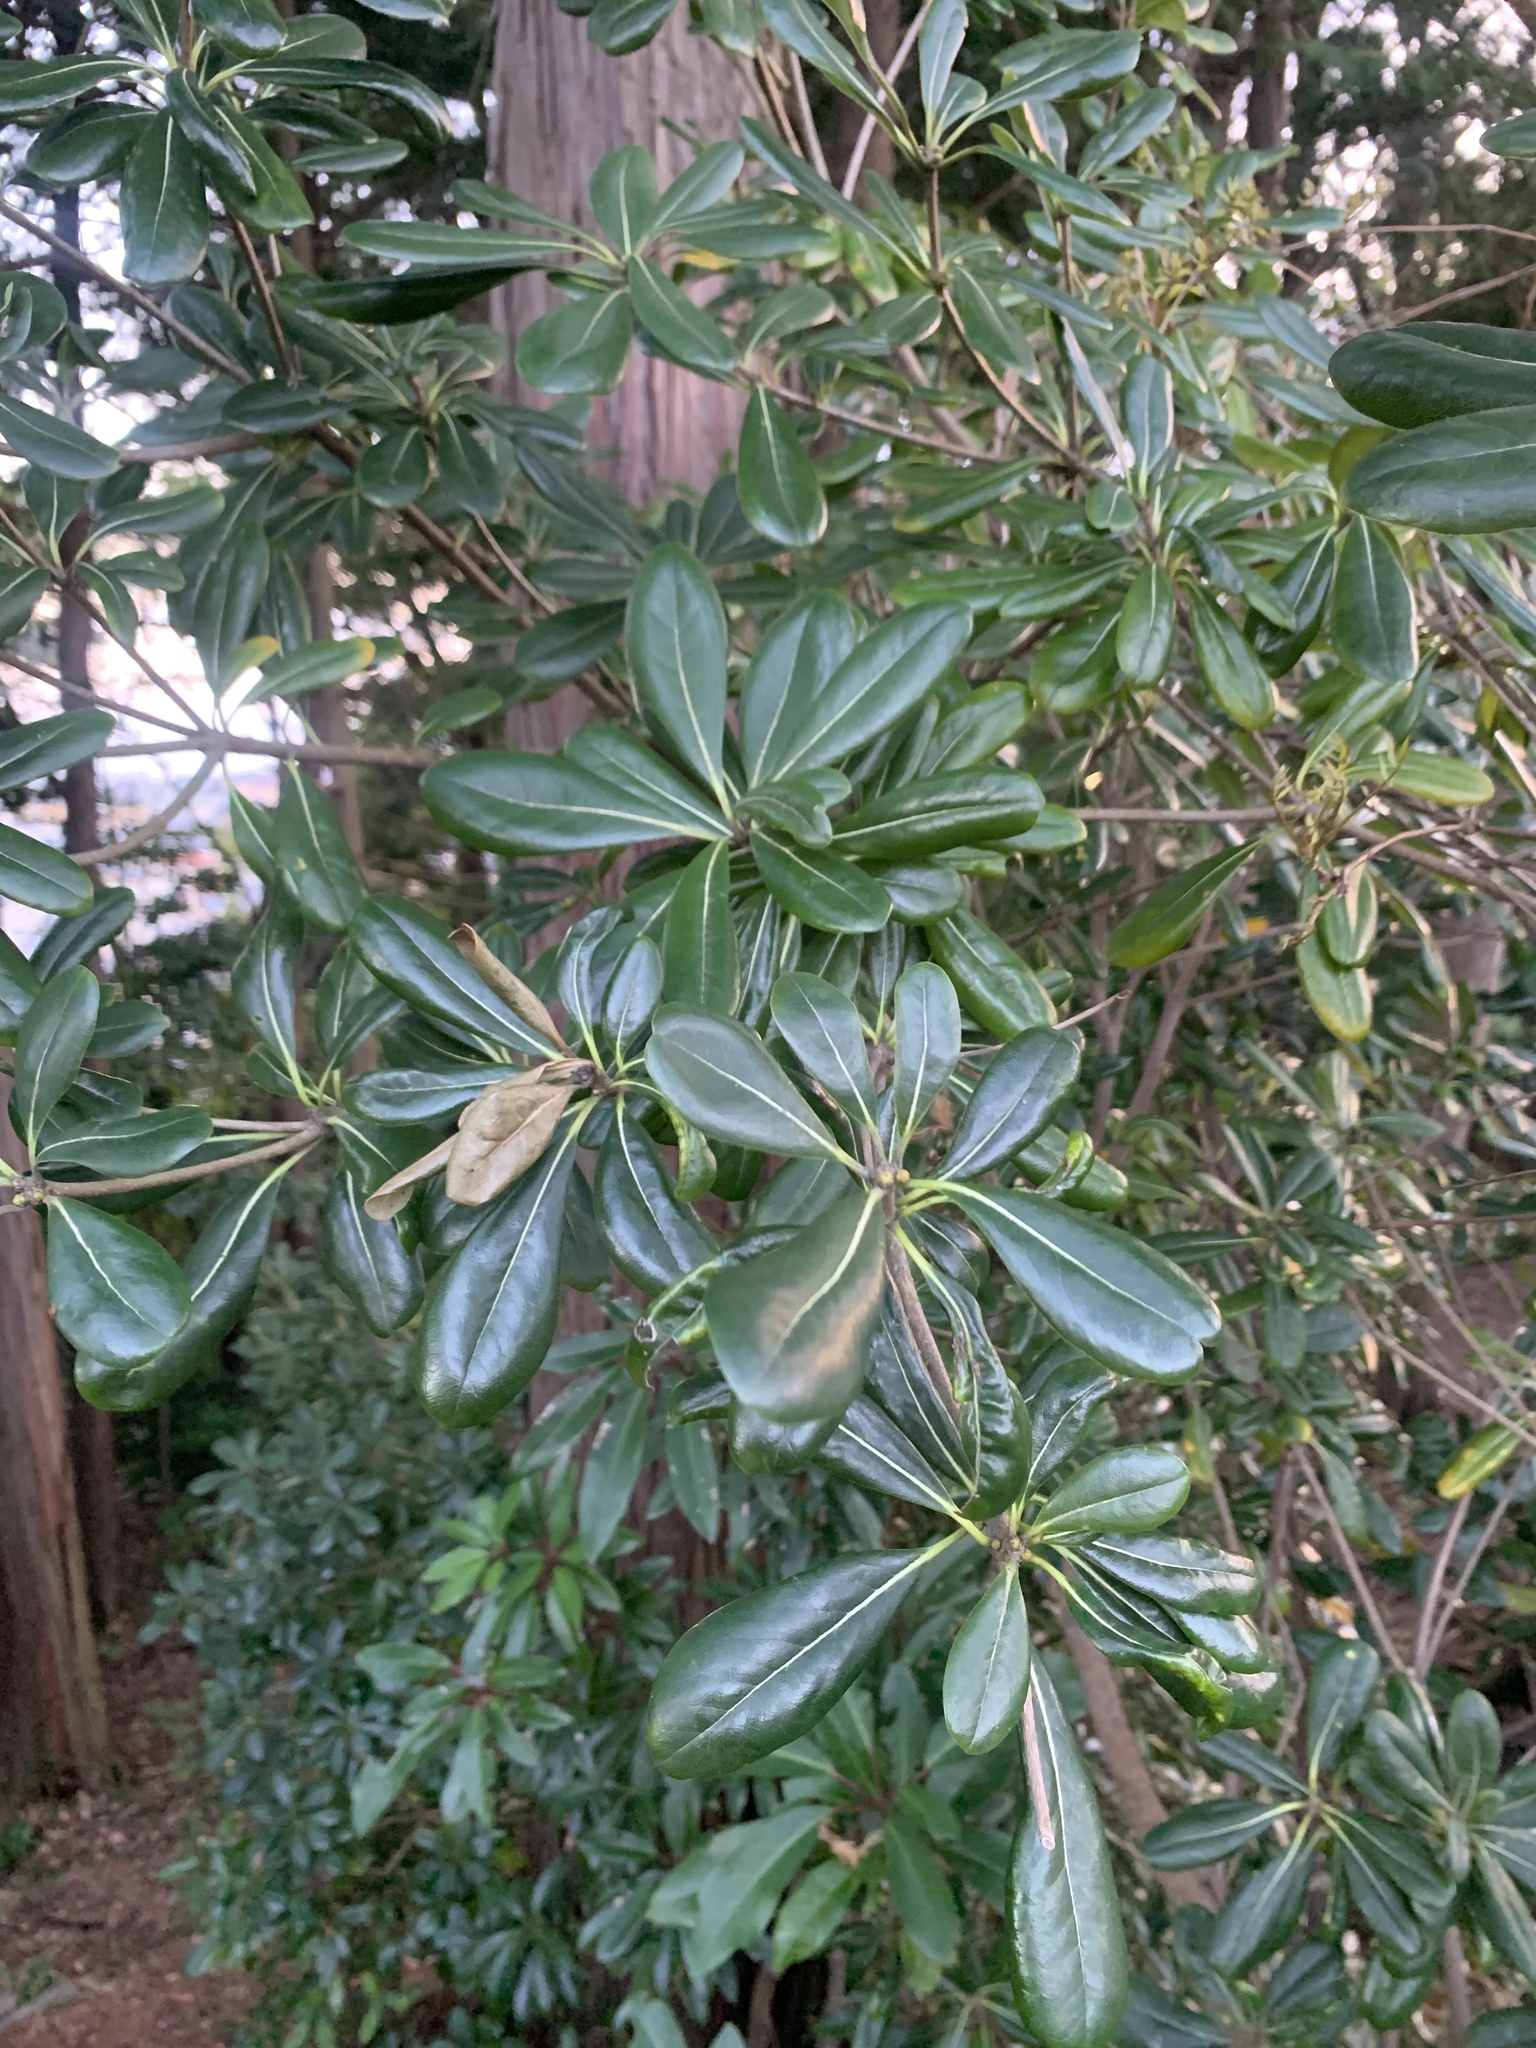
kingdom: Plantae
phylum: Tracheophyta
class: Magnoliopsida
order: Apiales
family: Pittosporaceae
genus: Pittosporum
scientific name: Pittosporum tobira
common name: Japanese cheesewood
